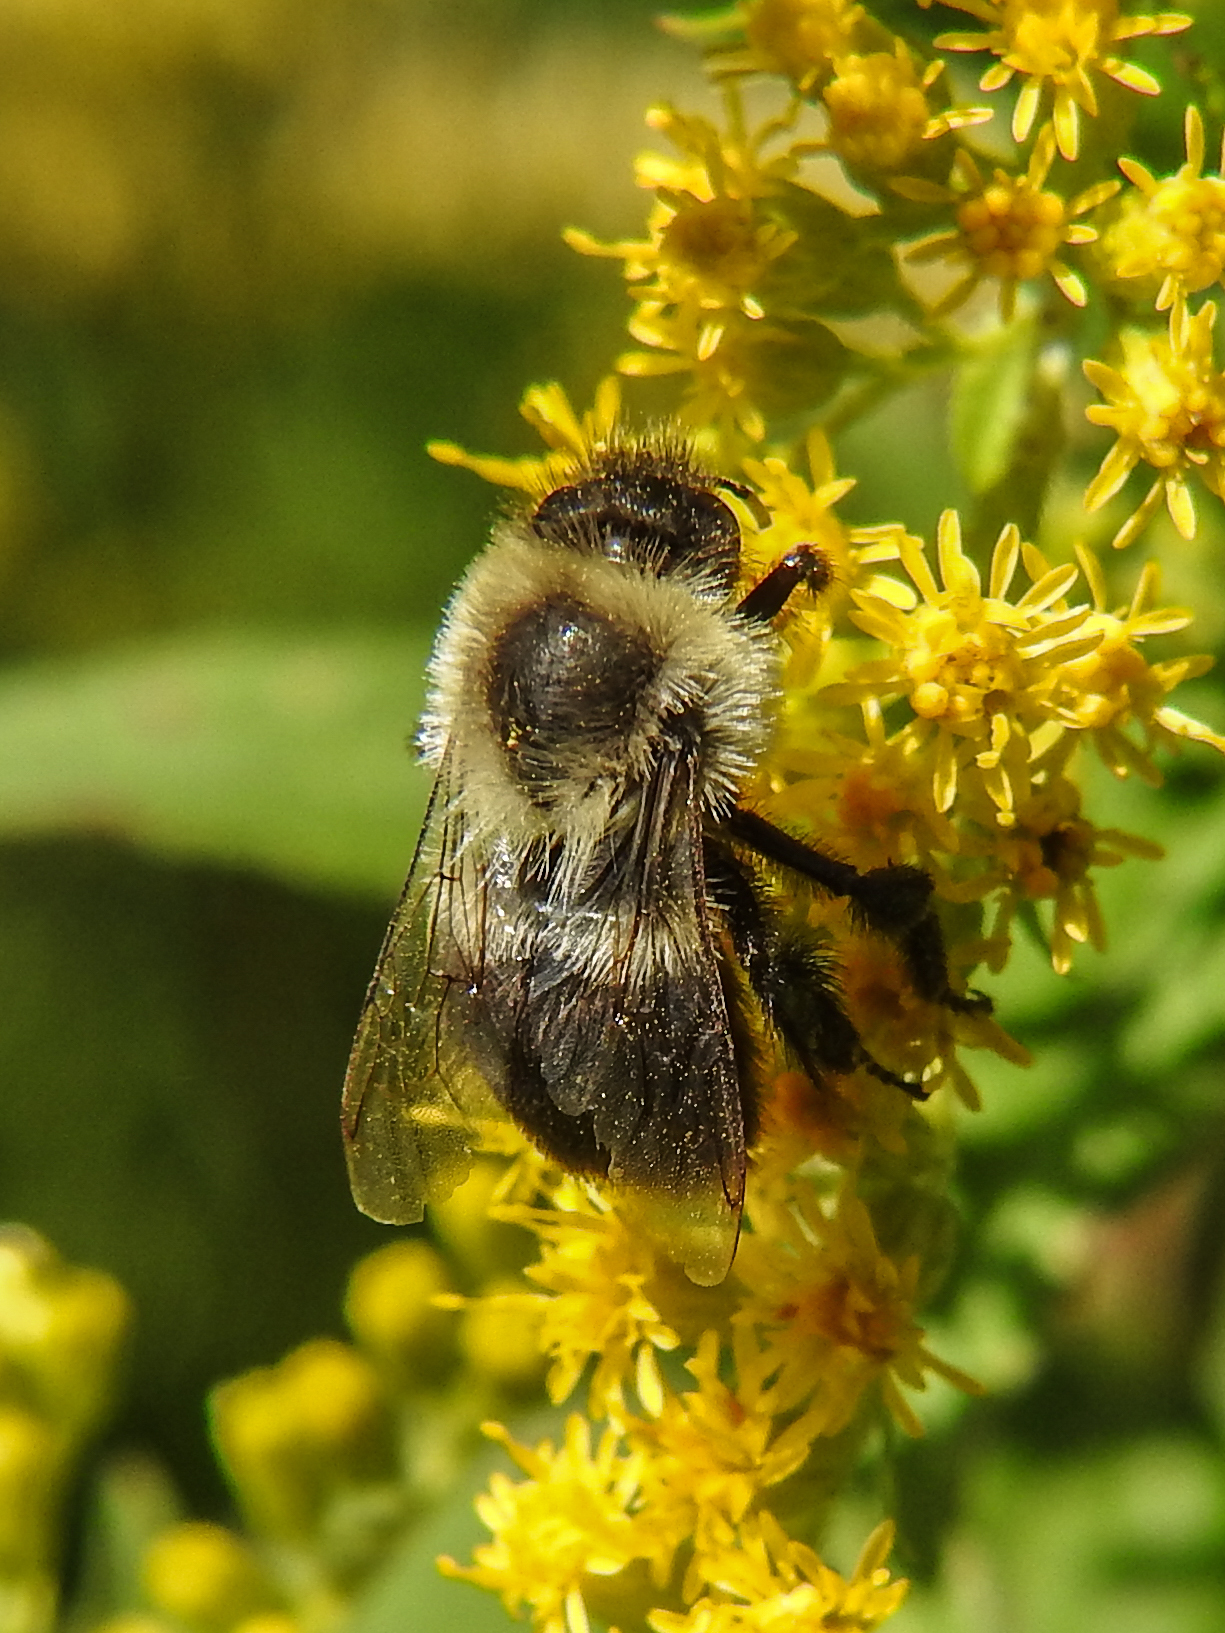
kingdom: Animalia
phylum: Arthropoda
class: Insecta
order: Hymenoptera
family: Apidae
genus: Bombus
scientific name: Bombus impatiens
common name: Common eastern bumble bee
